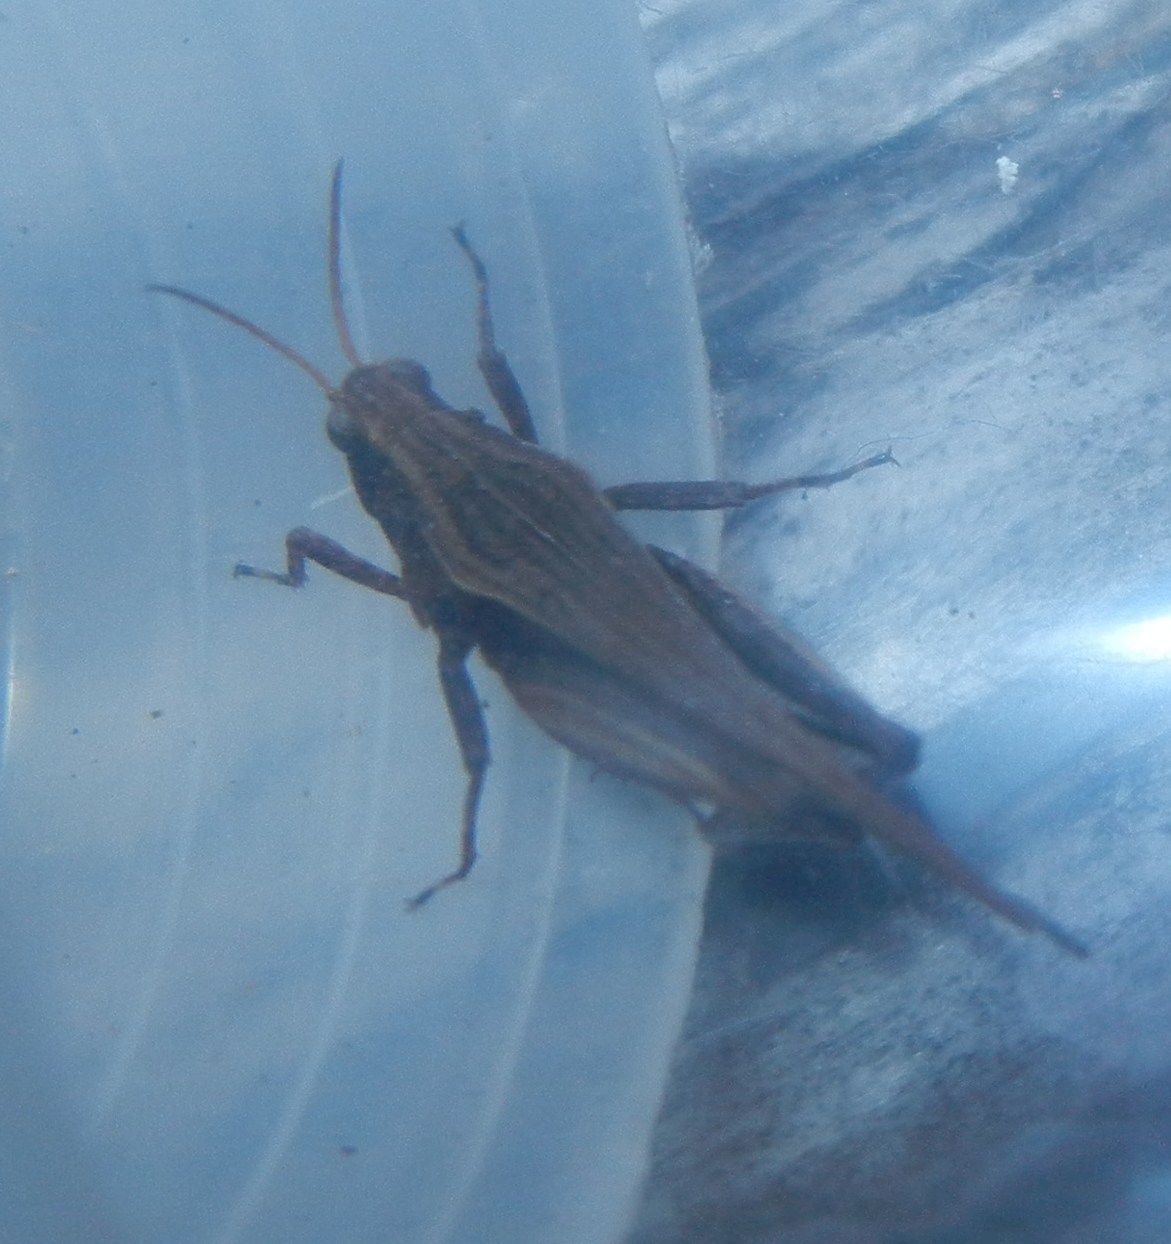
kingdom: Animalia
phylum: Arthropoda
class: Insecta
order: Orthoptera
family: Tetrigidae
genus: Tetrix
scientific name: Tetrix subulata
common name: Slender ground-hopper
